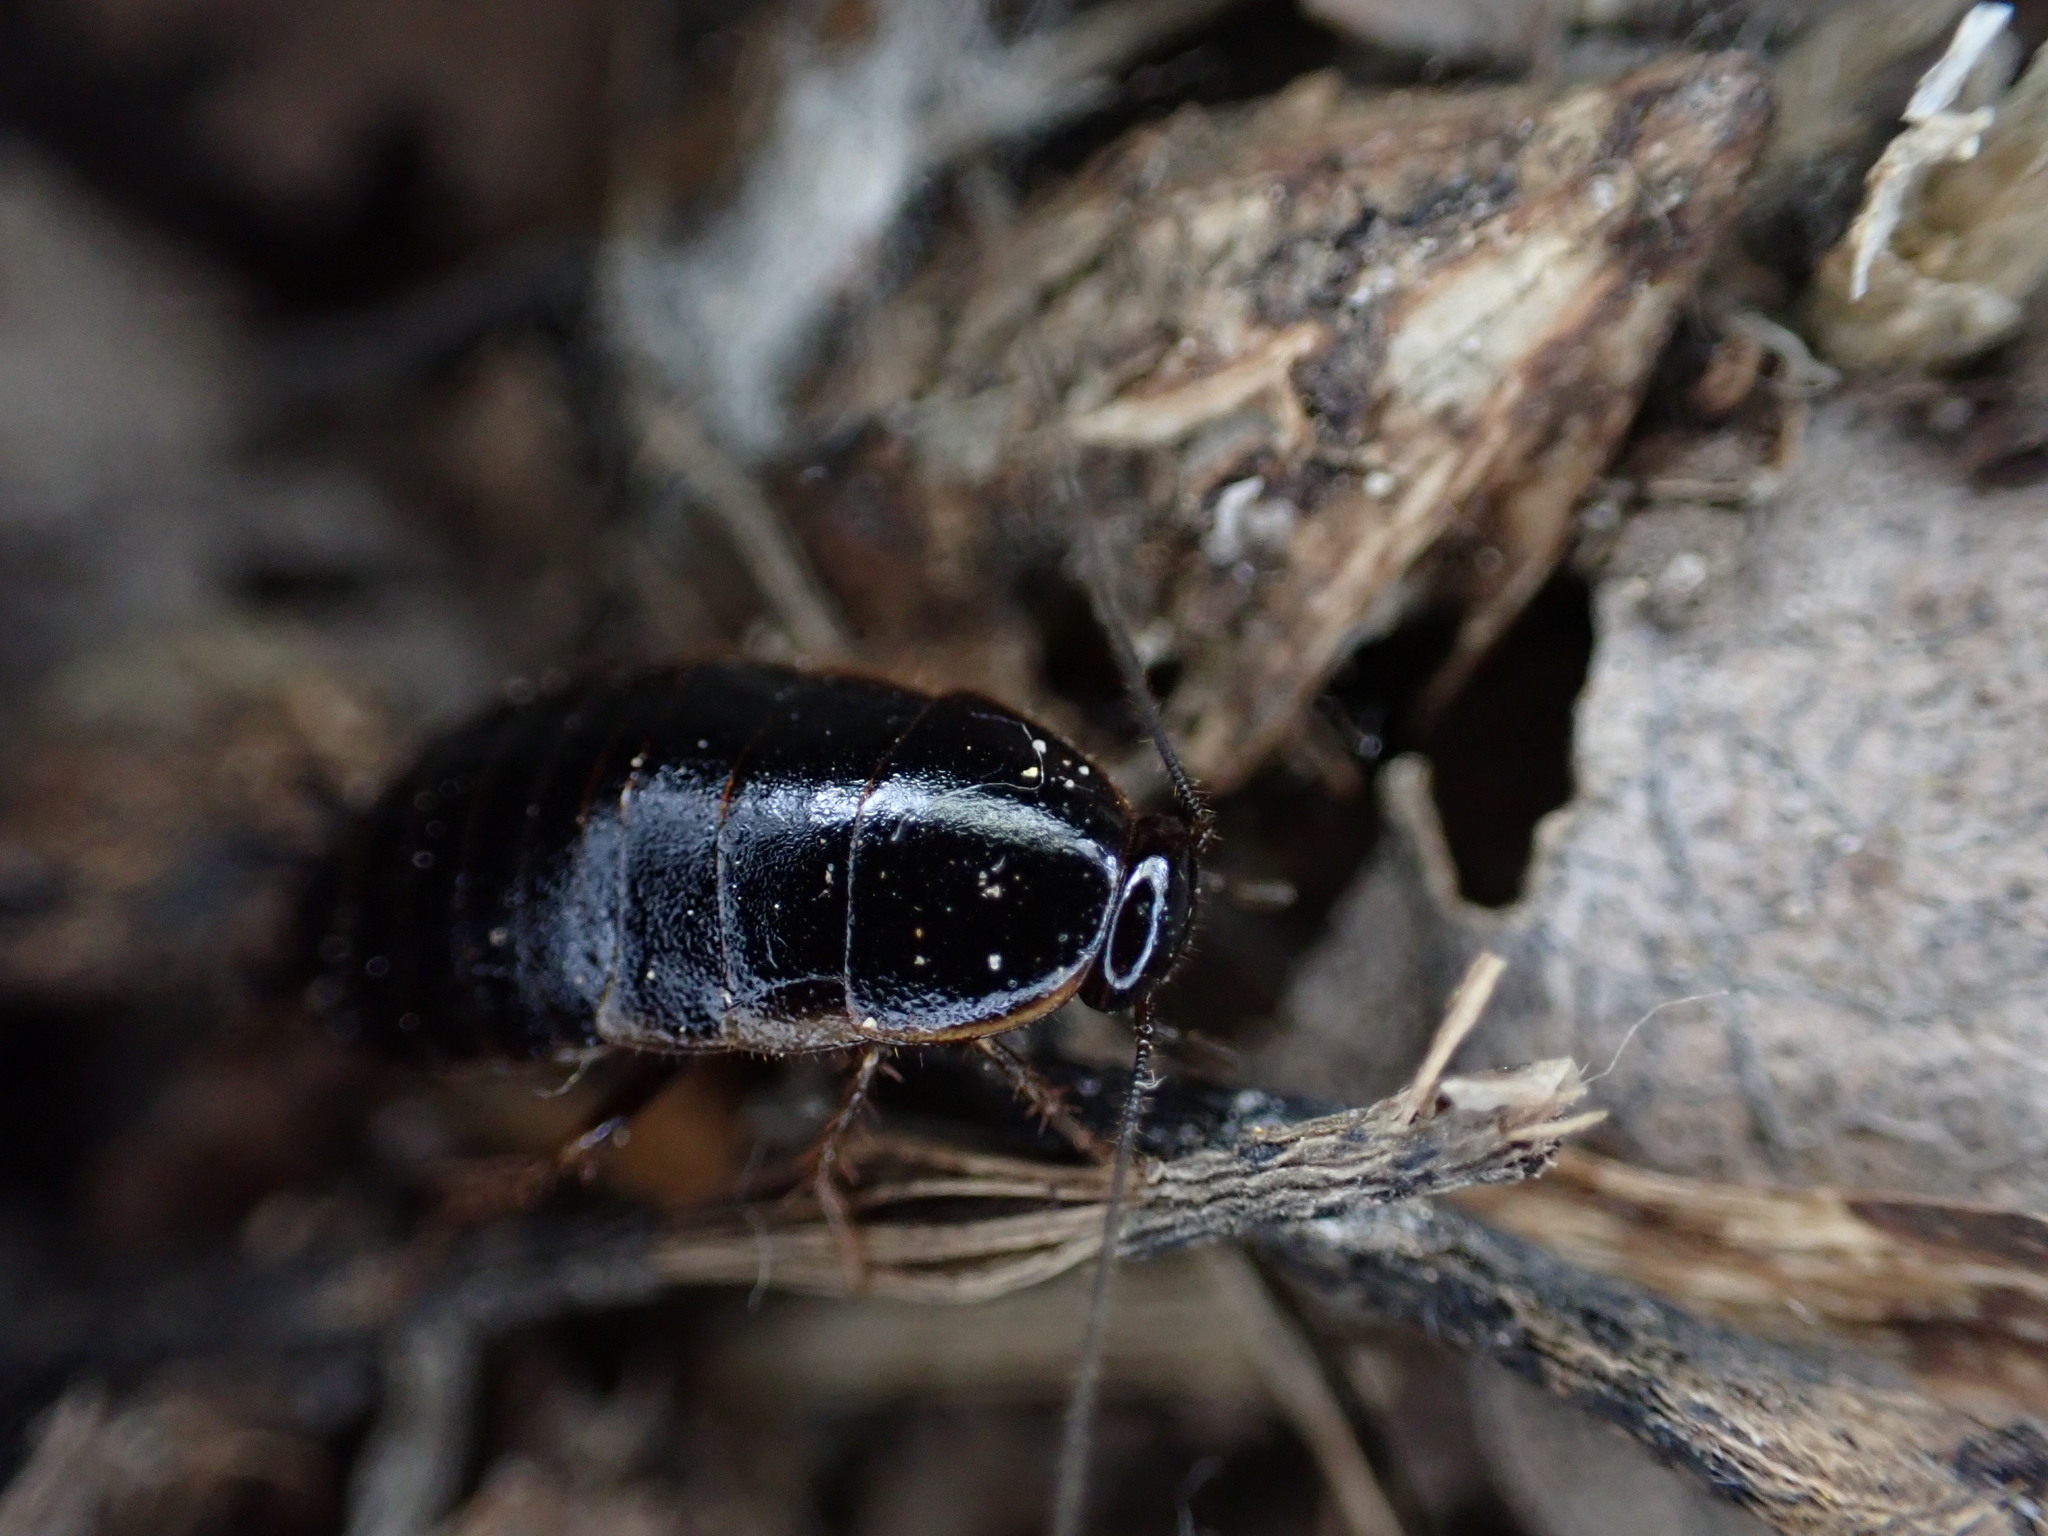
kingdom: Animalia
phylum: Arthropoda
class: Insecta
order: Blattodea
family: Ectobiidae
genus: Loboptera
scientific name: Loboptera canariensis
